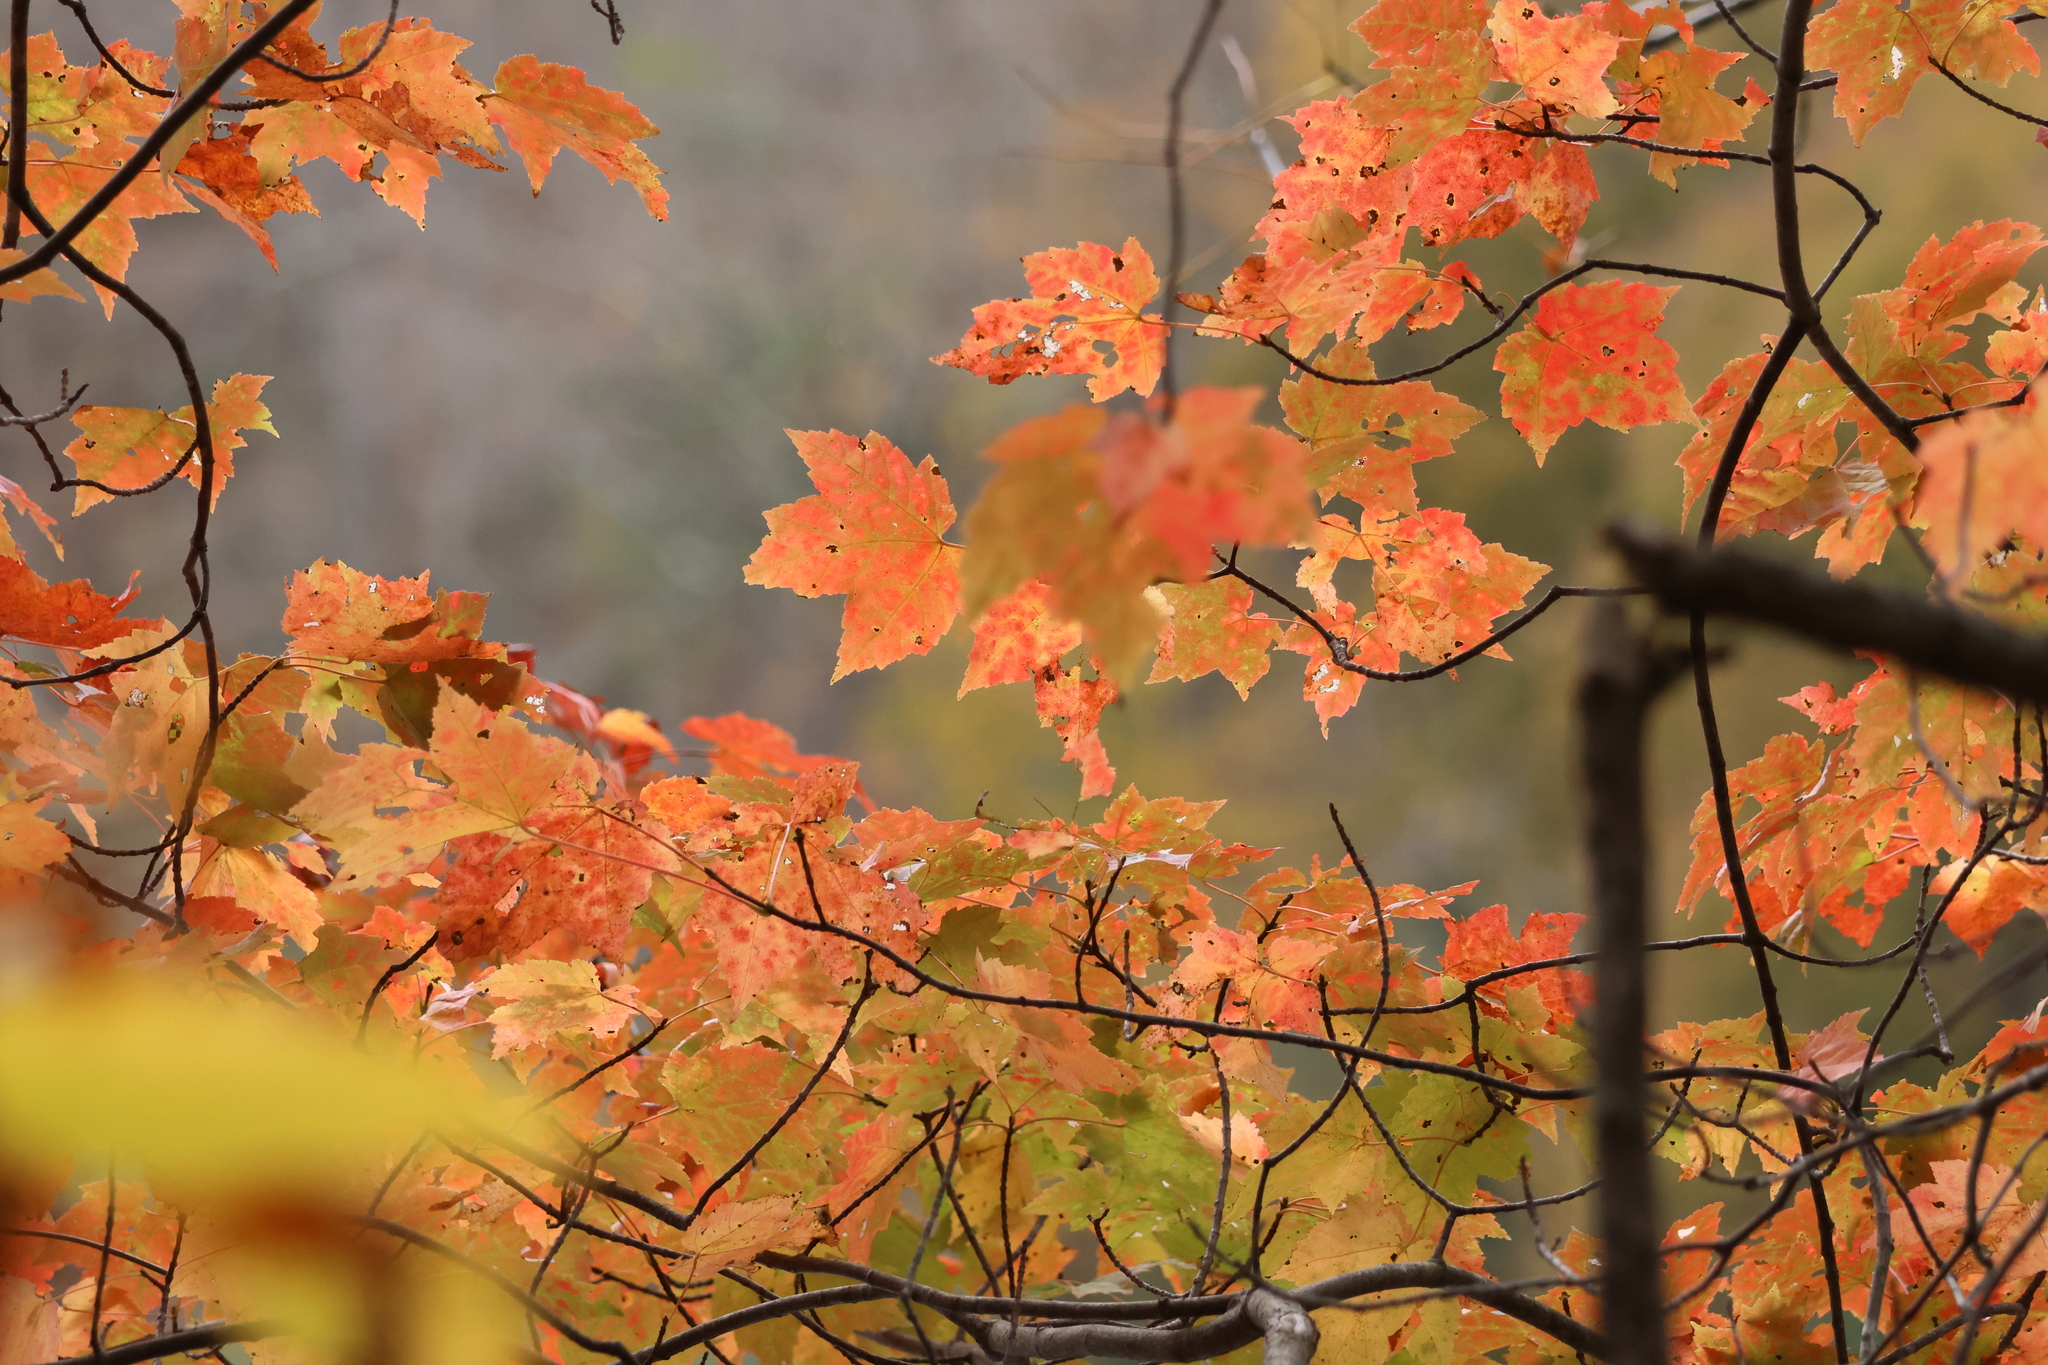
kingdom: Plantae
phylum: Tracheophyta
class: Magnoliopsida
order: Sapindales
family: Sapindaceae
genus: Acer
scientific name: Acer rubrum
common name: Red maple
